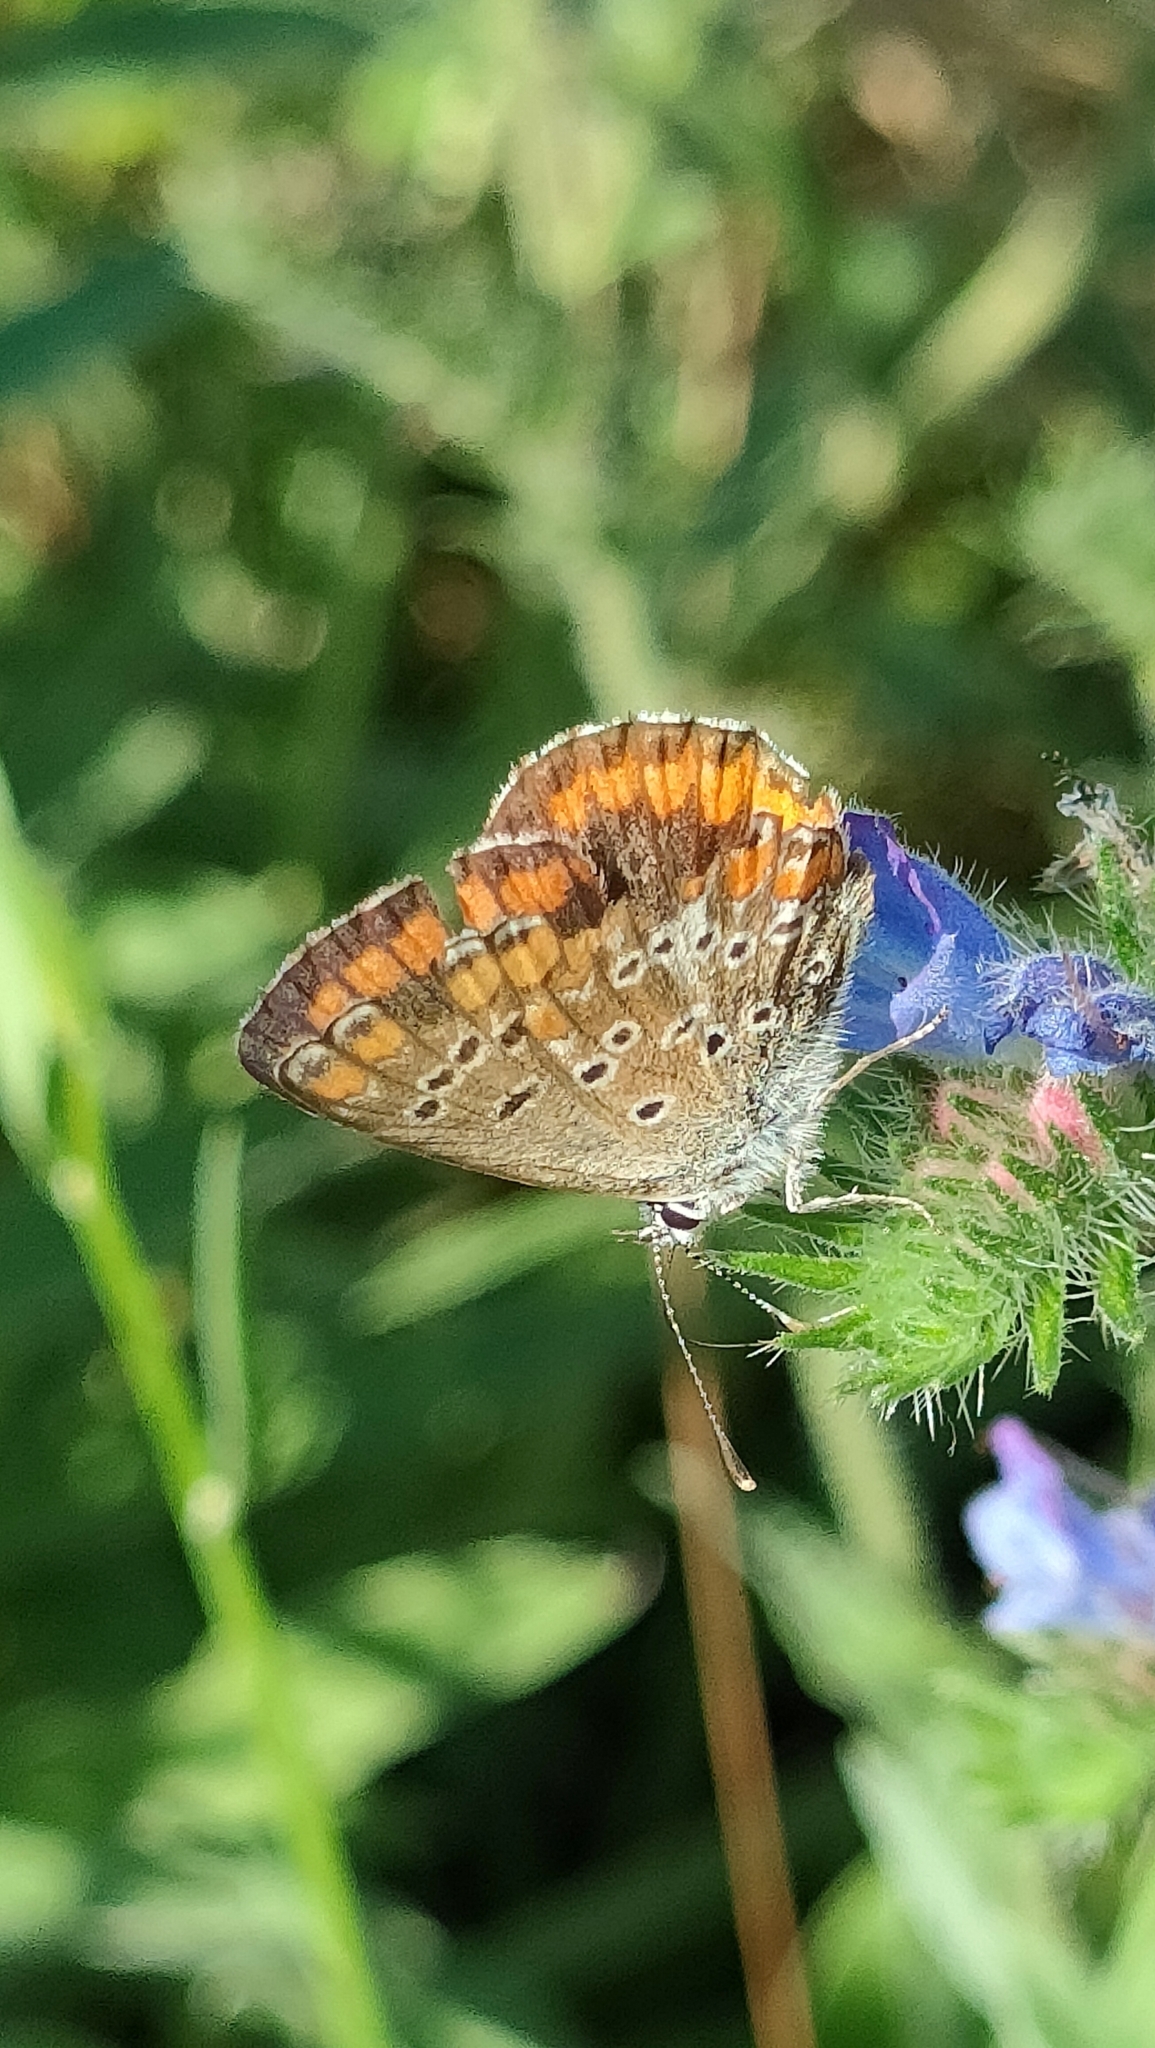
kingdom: Animalia
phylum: Arthropoda
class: Insecta
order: Lepidoptera
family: Lycaenidae
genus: Aricia
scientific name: Aricia agestis
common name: Brown argus
